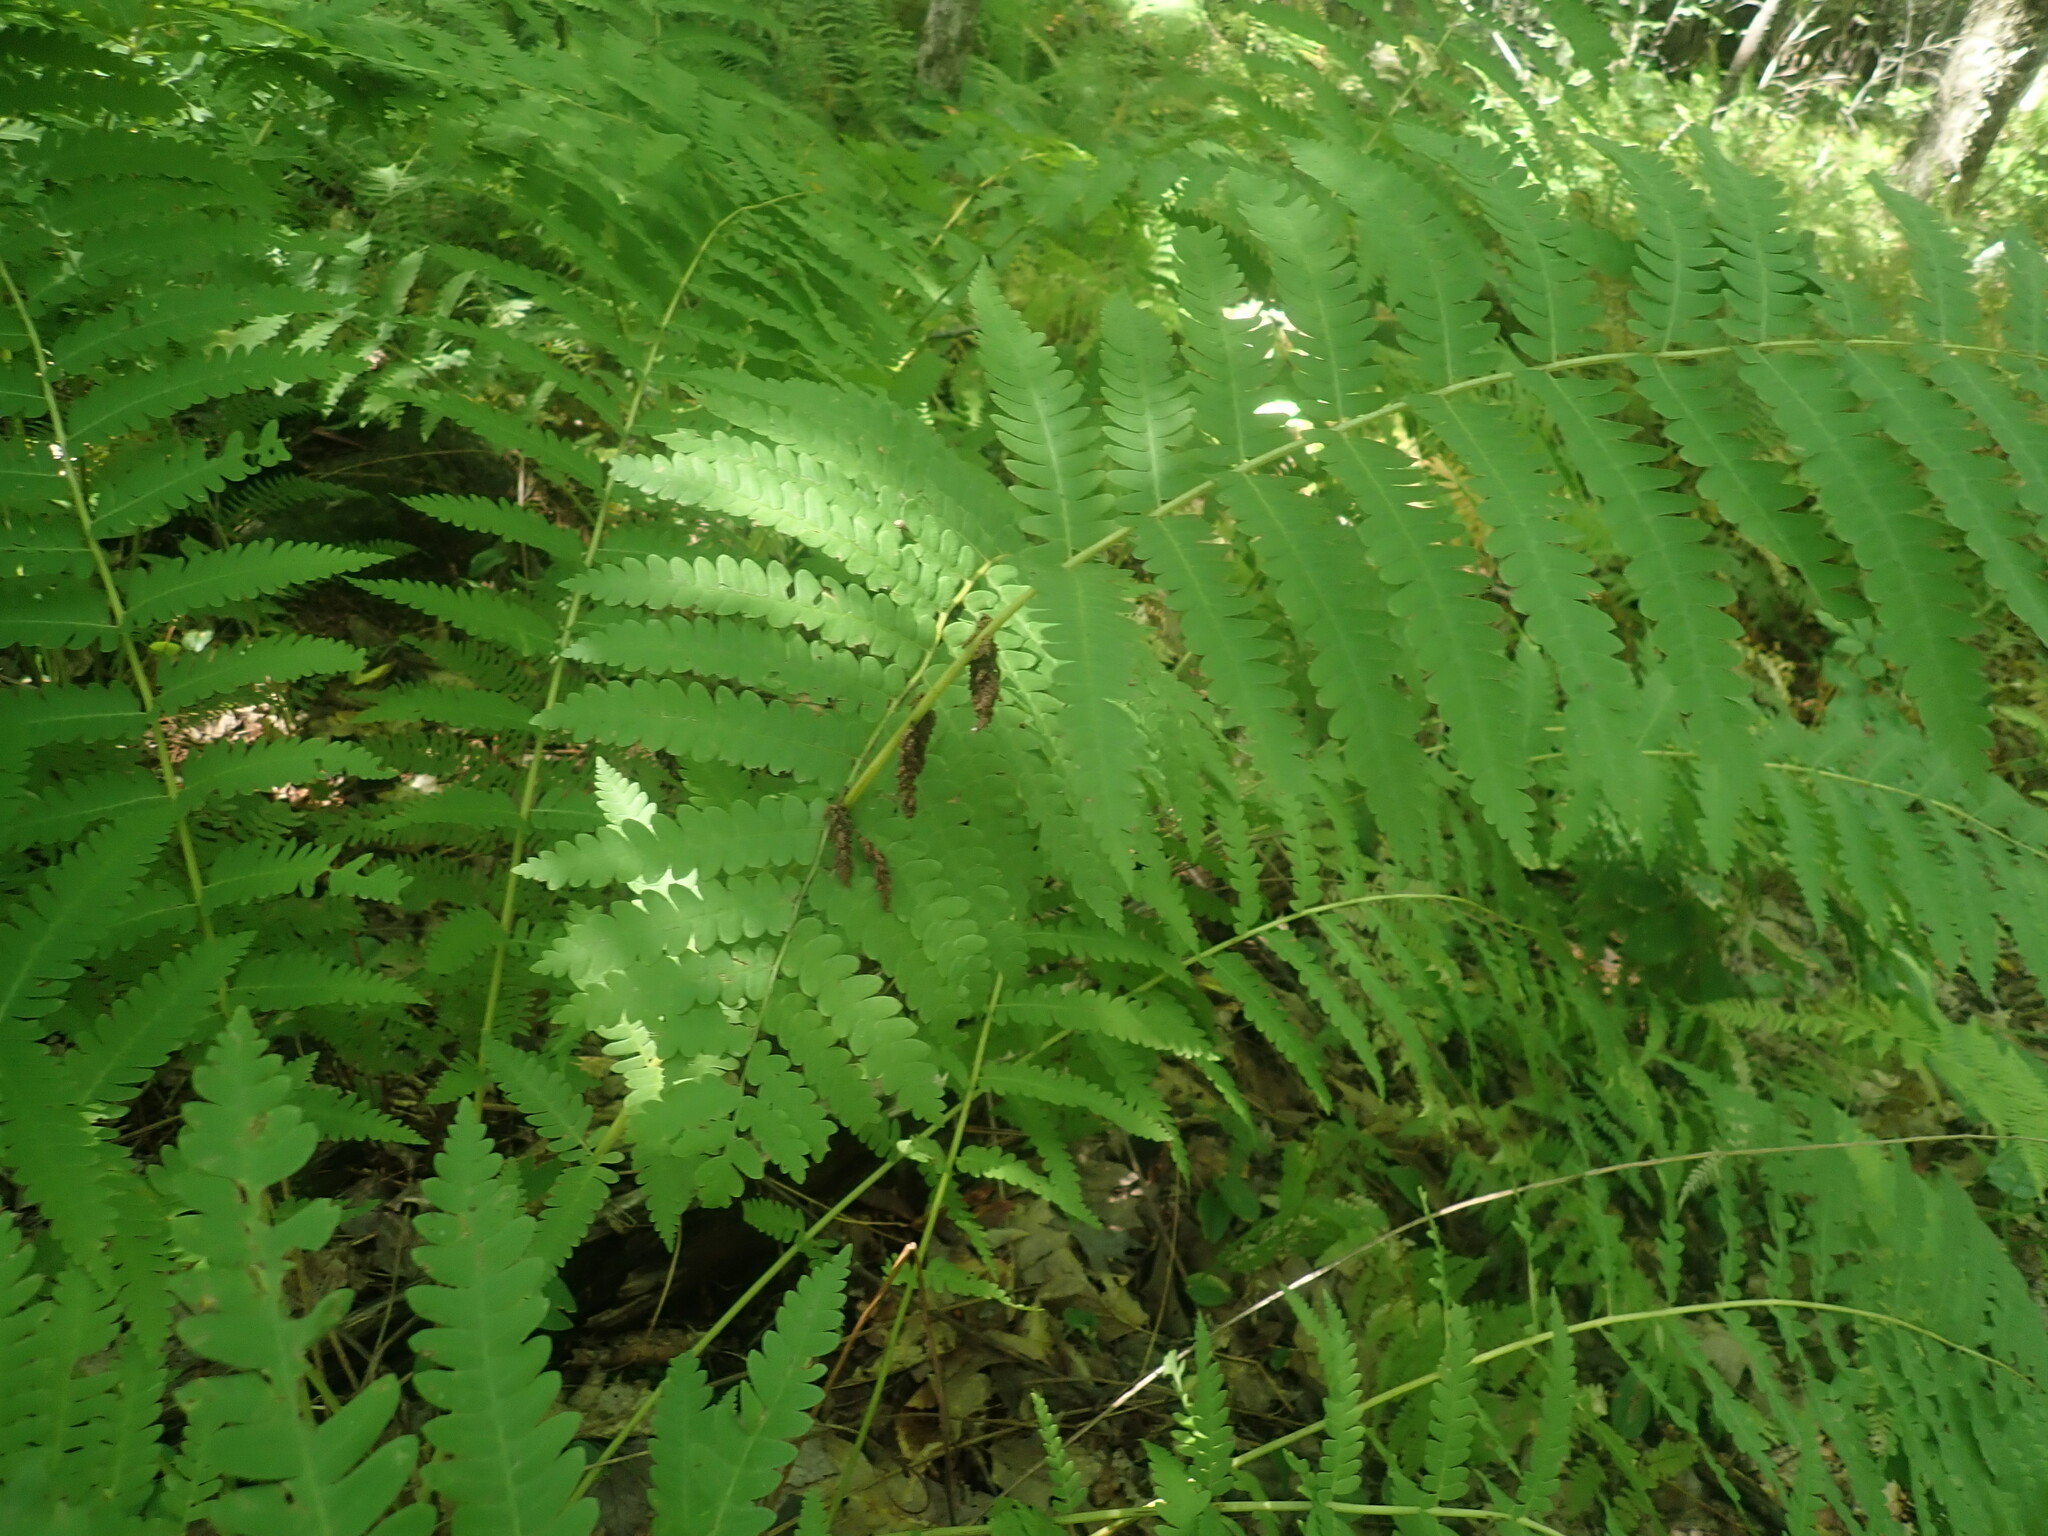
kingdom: Plantae
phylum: Tracheophyta
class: Polypodiopsida
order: Osmundales
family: Osmundaceae
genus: Claytosmunda
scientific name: Claytosmunda claytoniana
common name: Clayton's fern
